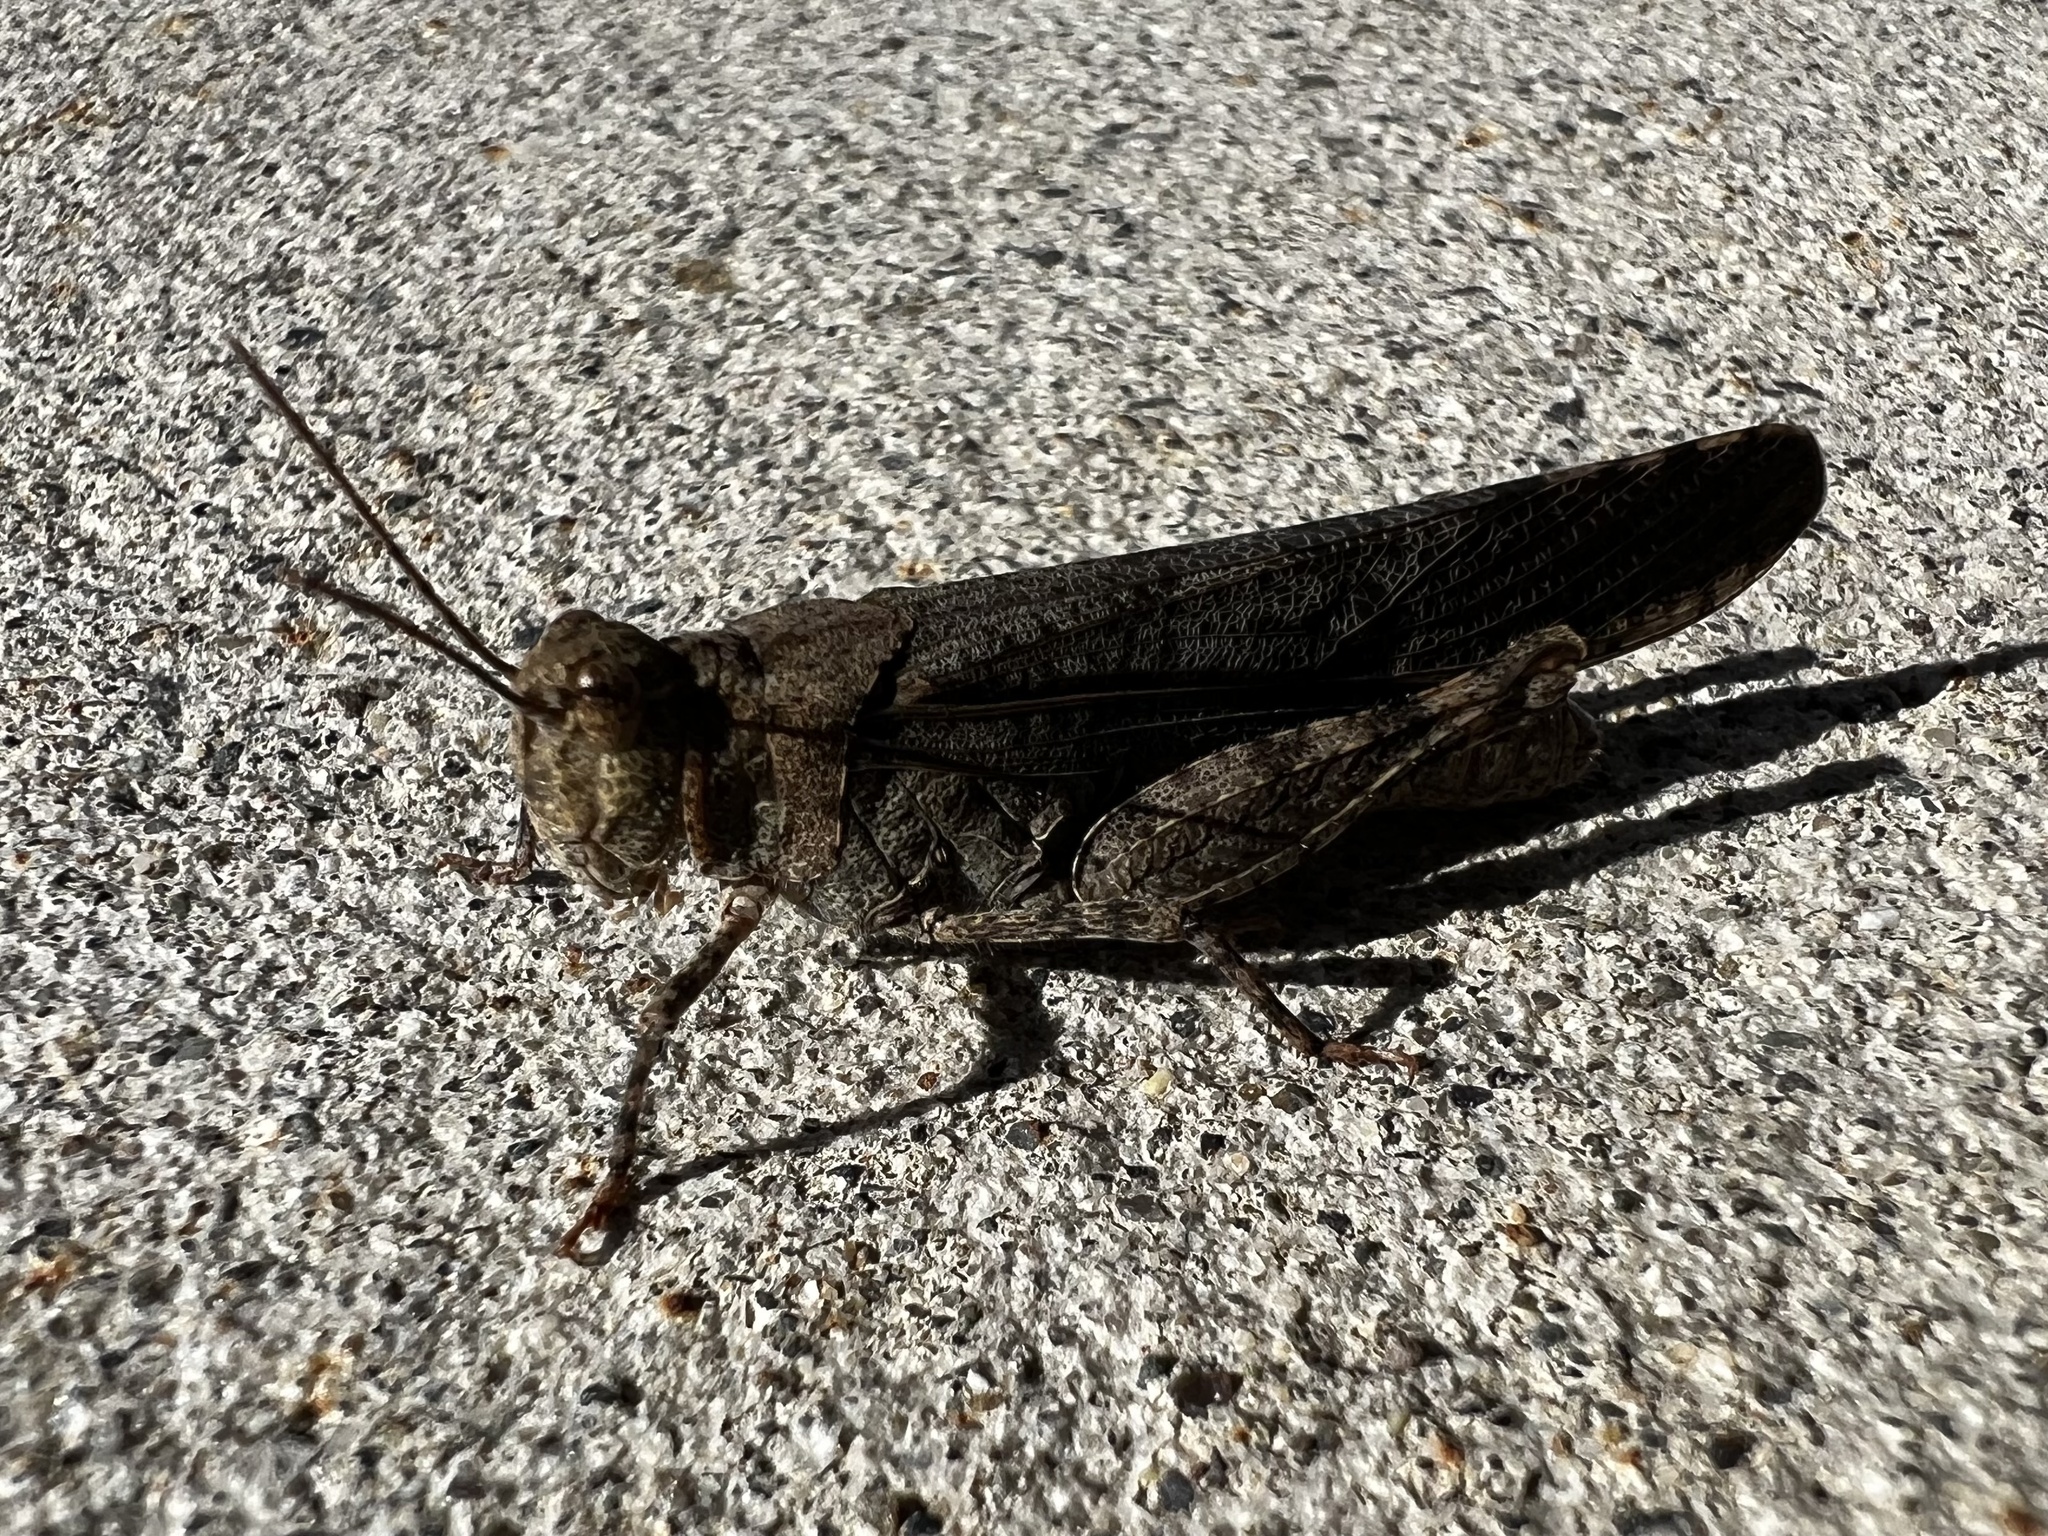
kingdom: Animalia
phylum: Arthropoda
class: Insecta
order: Orthoptera
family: Acrididae
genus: Trimerotropis
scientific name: Trimerotropis verruculata
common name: Crackling forest grasshopper
